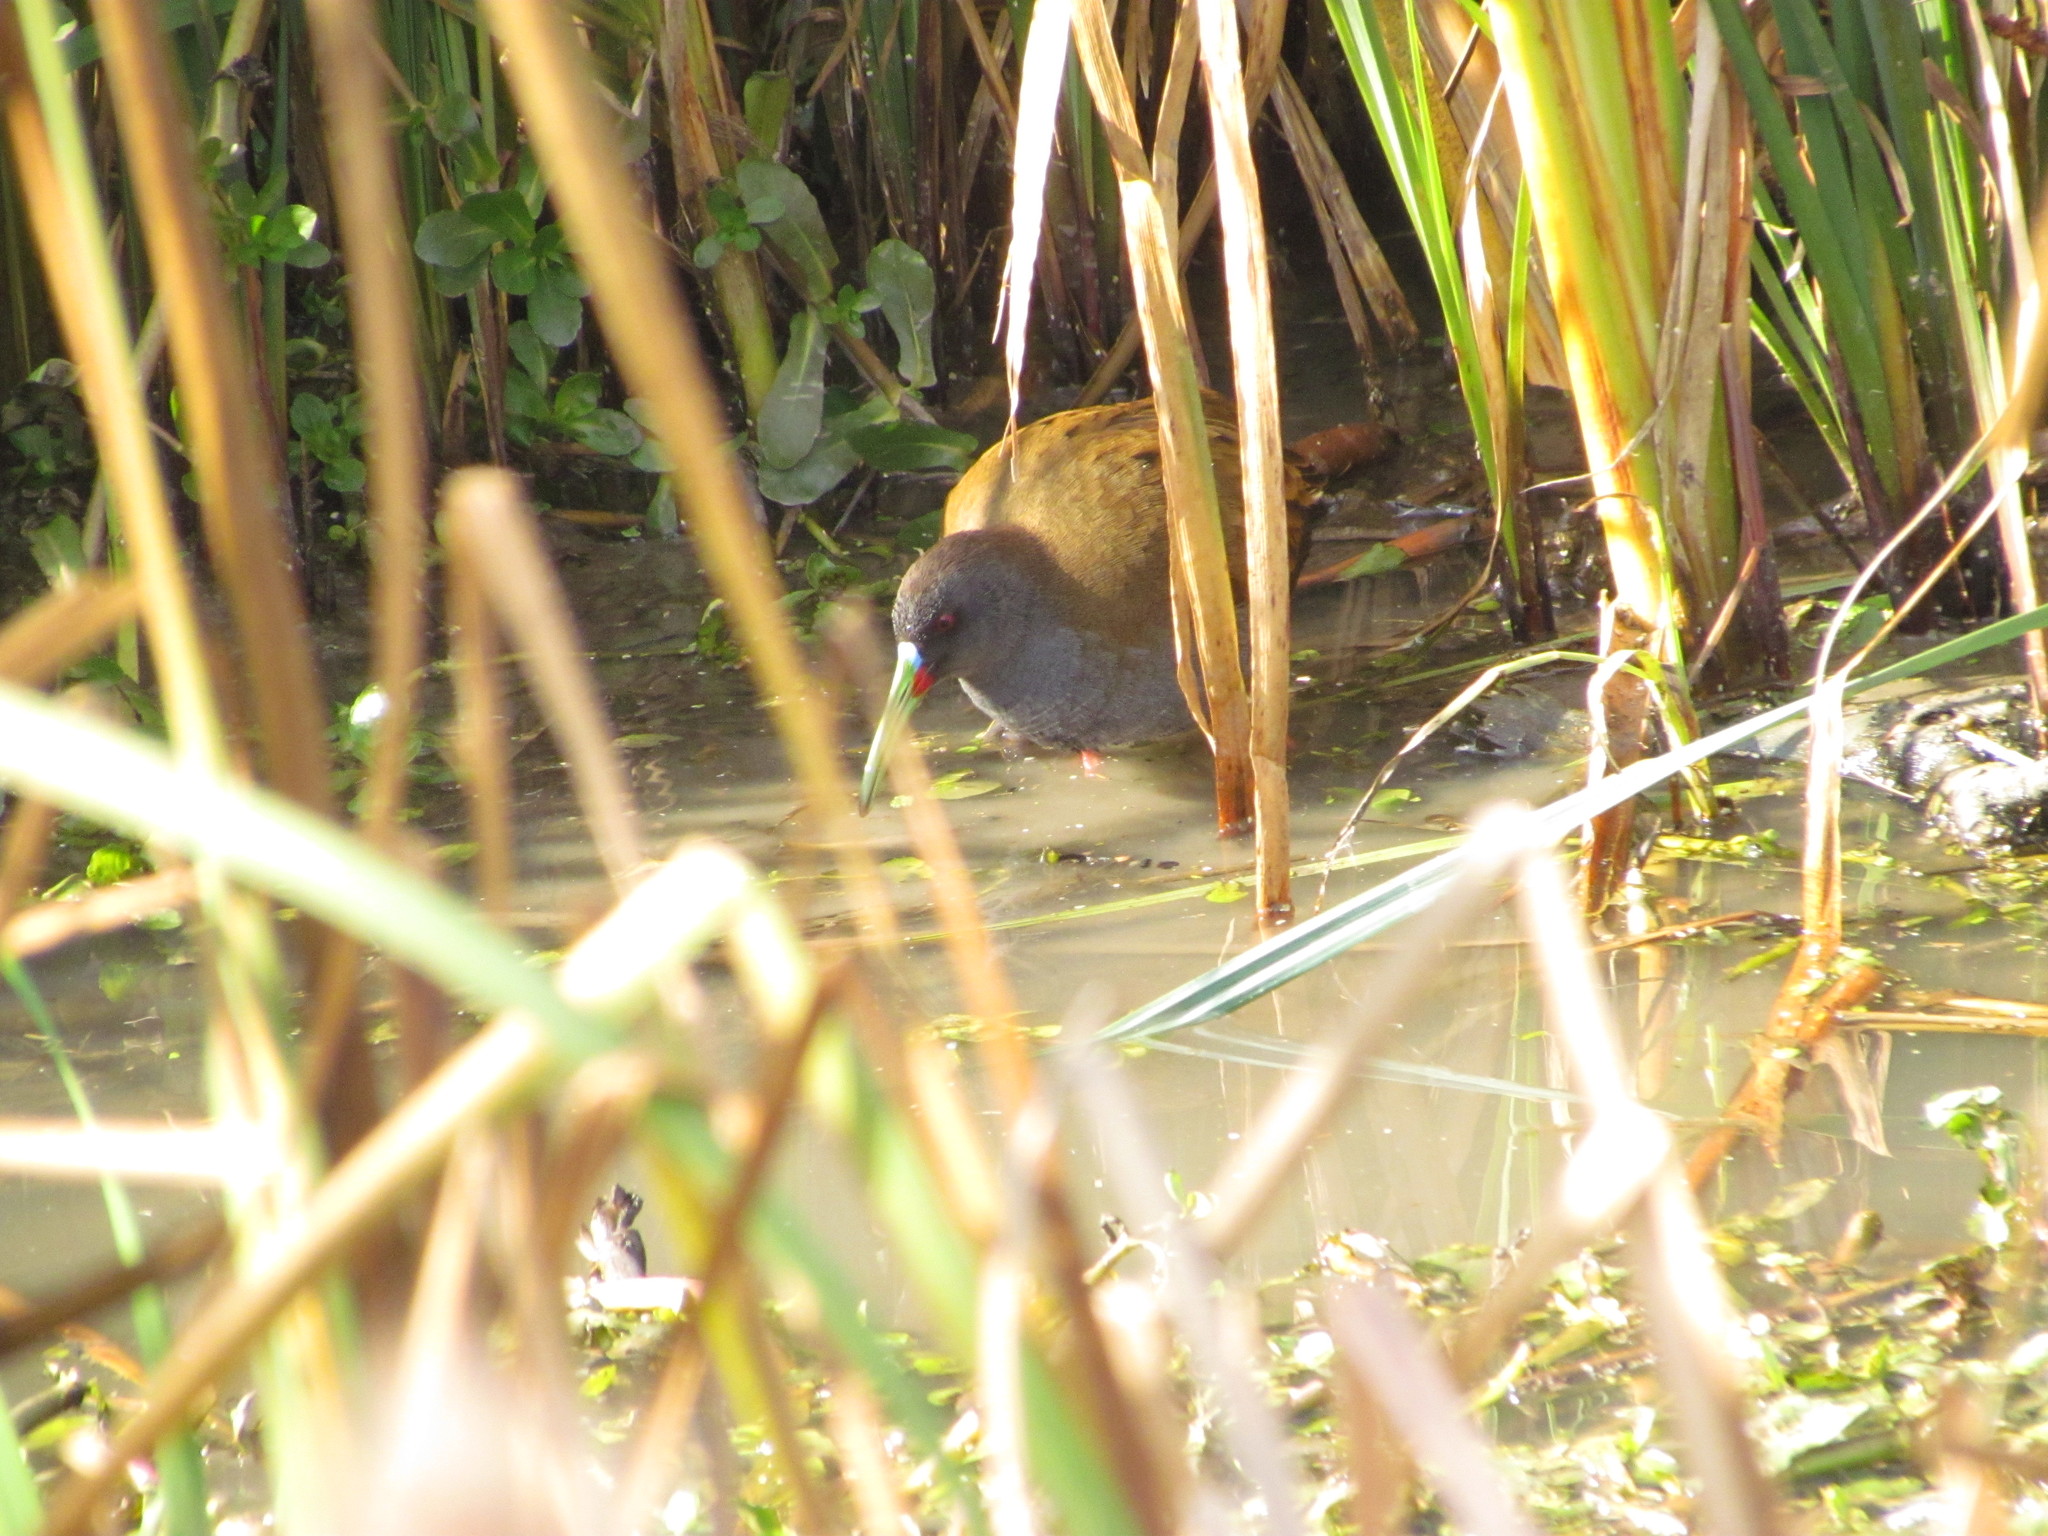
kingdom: Animalia
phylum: Chordata
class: Aves
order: Gruiformes
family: Rallidae
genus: Pardirallus
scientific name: Pardirallus sanguinolentus
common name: Plumbeous rail
